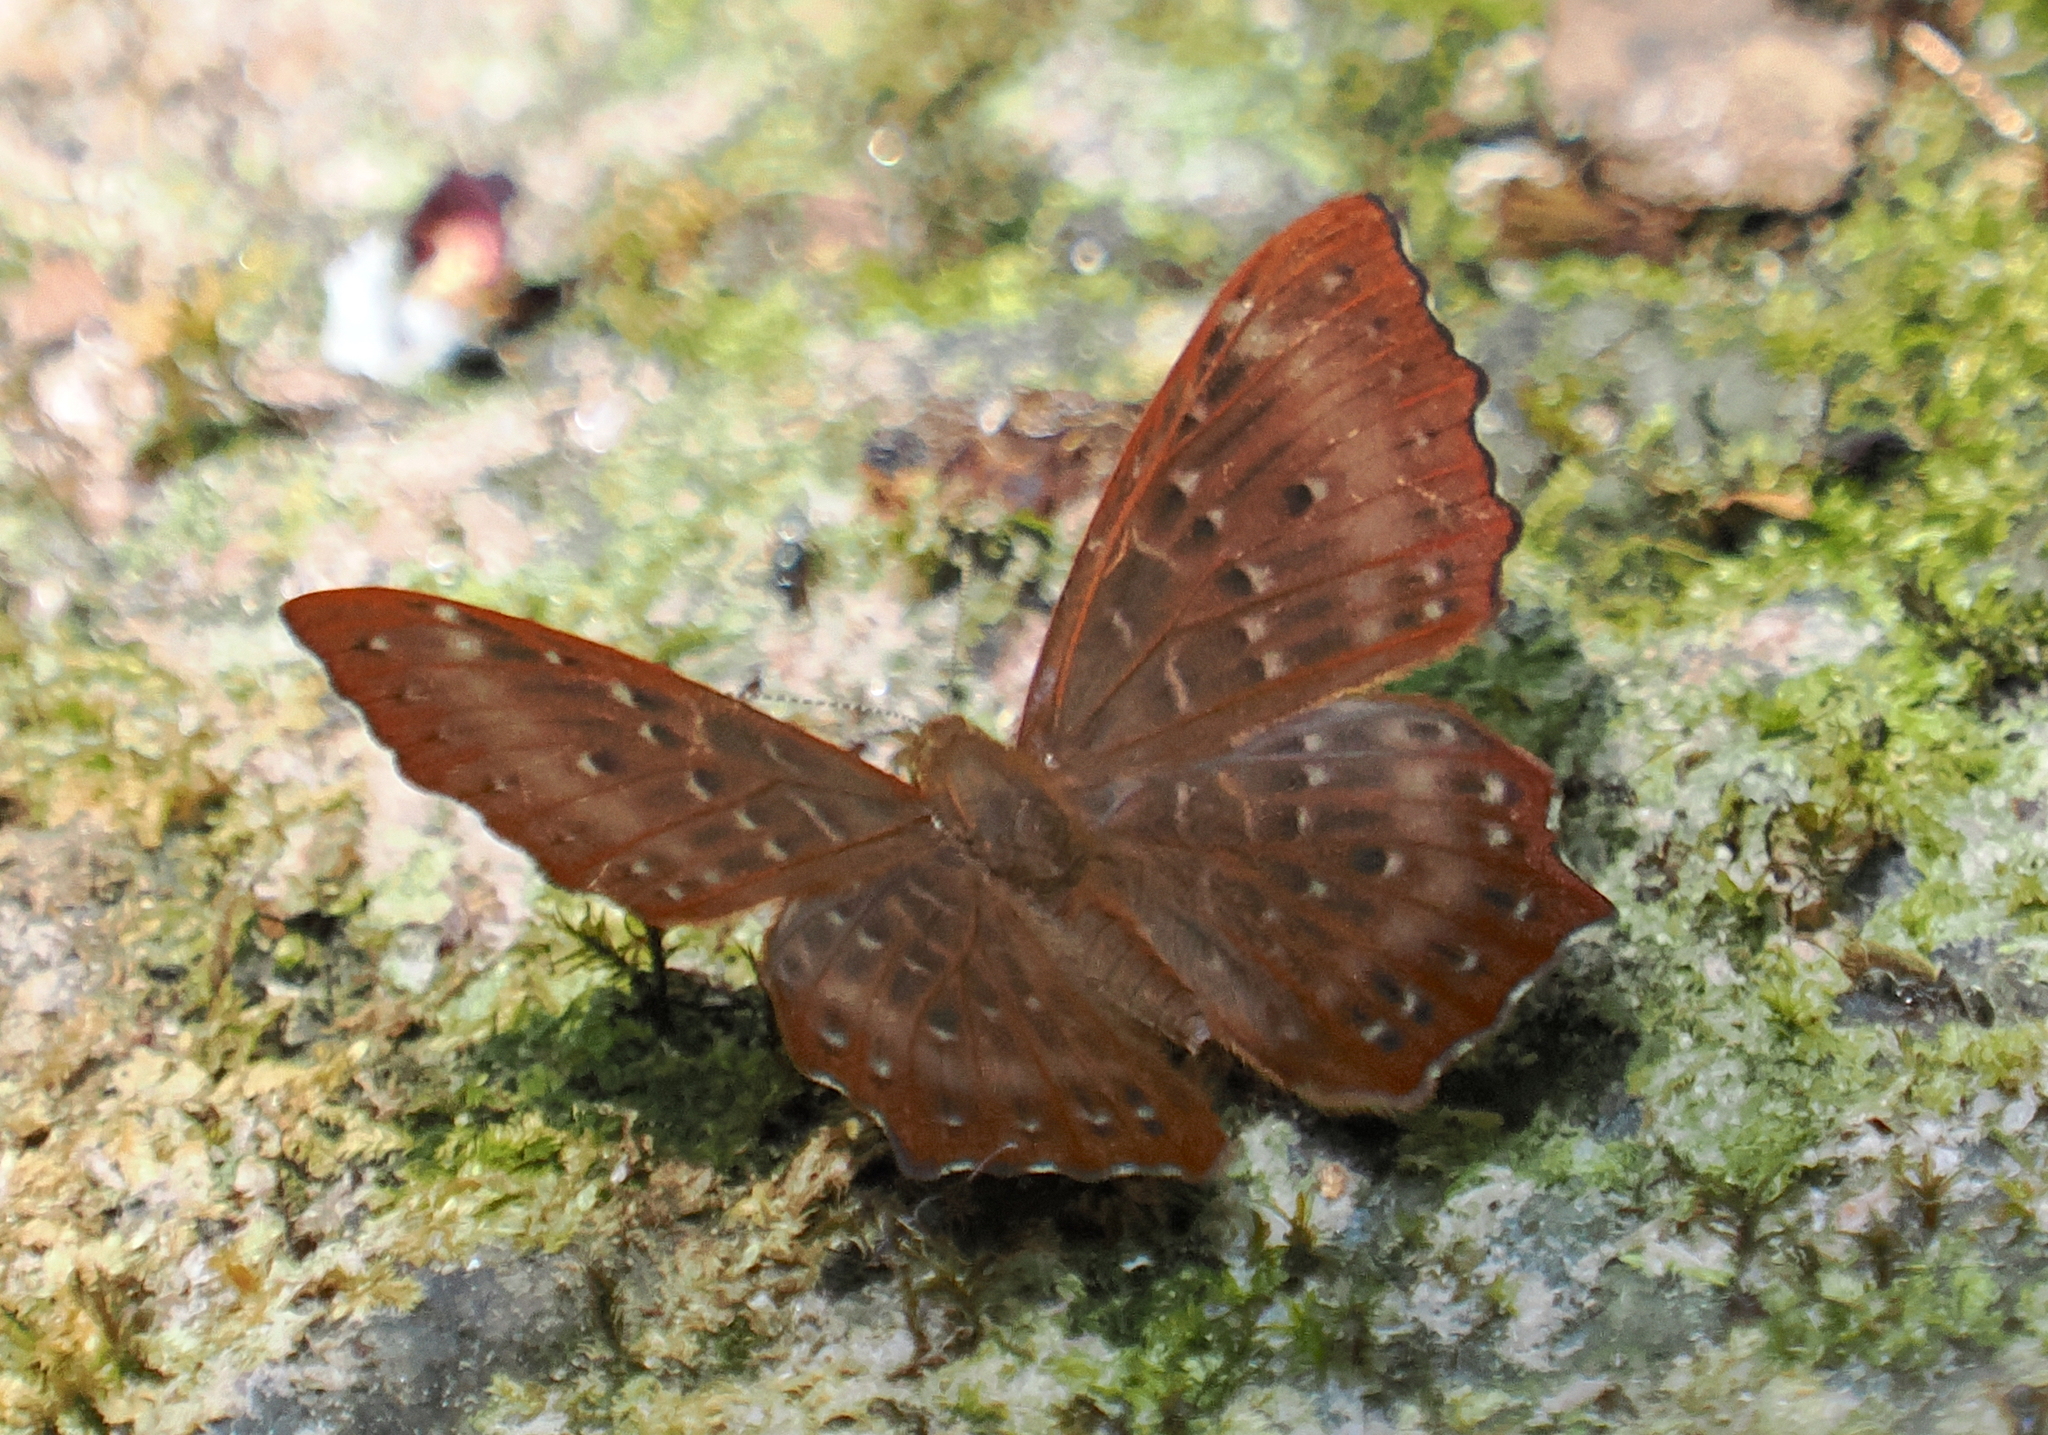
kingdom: Animalia
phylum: Arthropoda
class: Insecta
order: Lepidoptera
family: Riodinidae
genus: Zemeros
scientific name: Zemeros flegyas
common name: Punchinello
